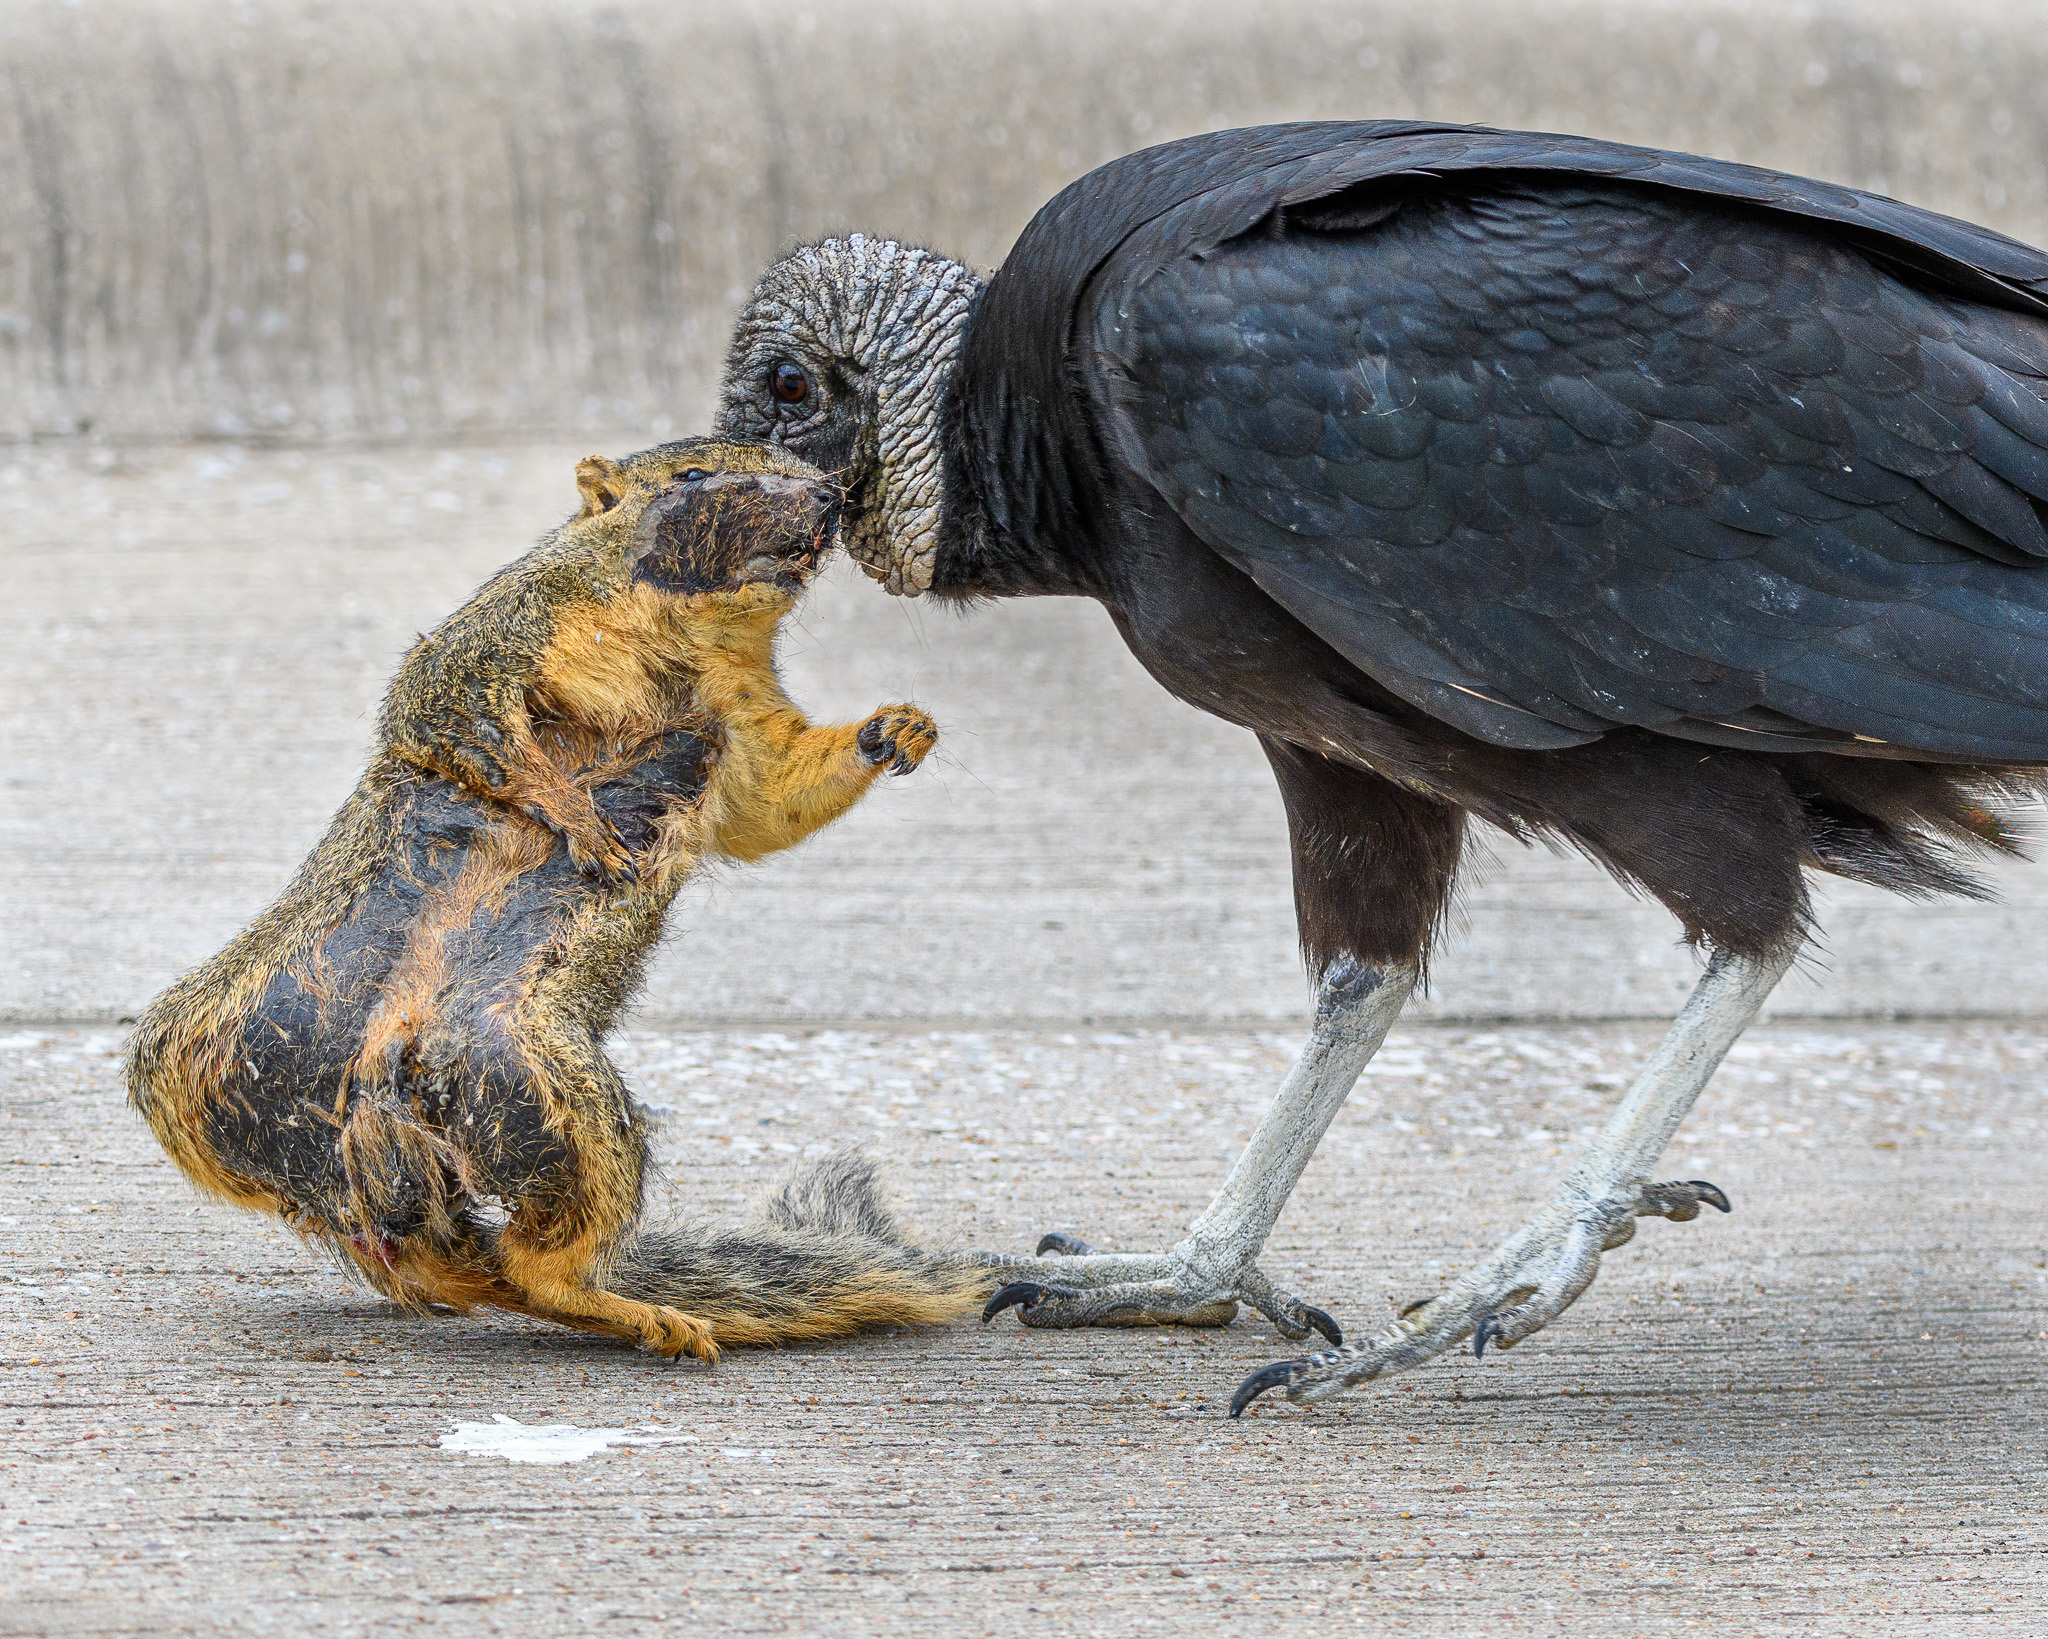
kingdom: Animalia
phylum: Chordata
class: Aves
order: Accipitriformes
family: Cathartidae
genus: Coragyps
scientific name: Coragyps atratus
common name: Black vulture
